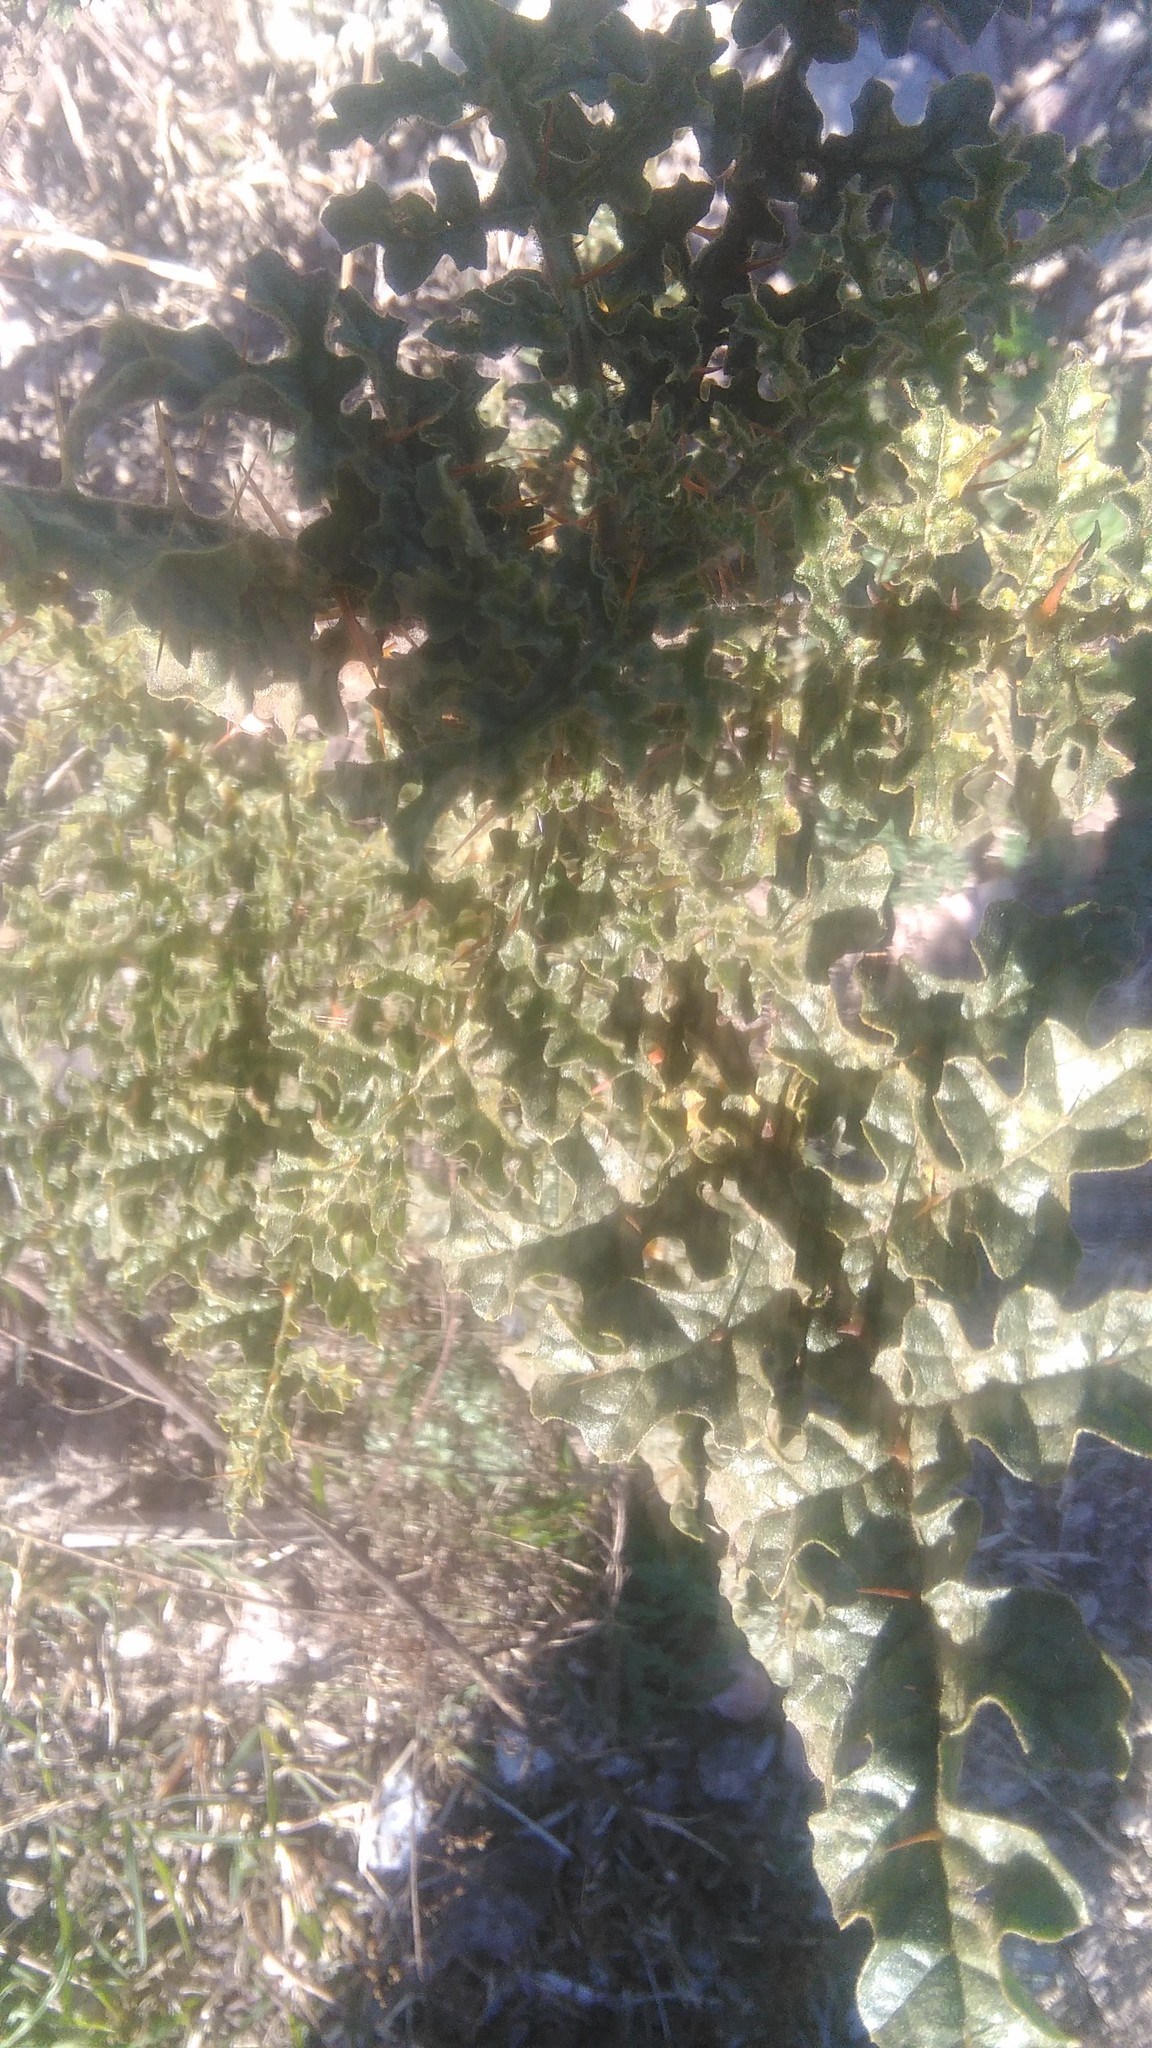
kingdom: Plantae
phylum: Tracheophyta
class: Magnoliopsida
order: Solanales
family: Solanaceae
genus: Solanum
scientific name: Solanum sisymbriifolium
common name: Red buffalo-bur
